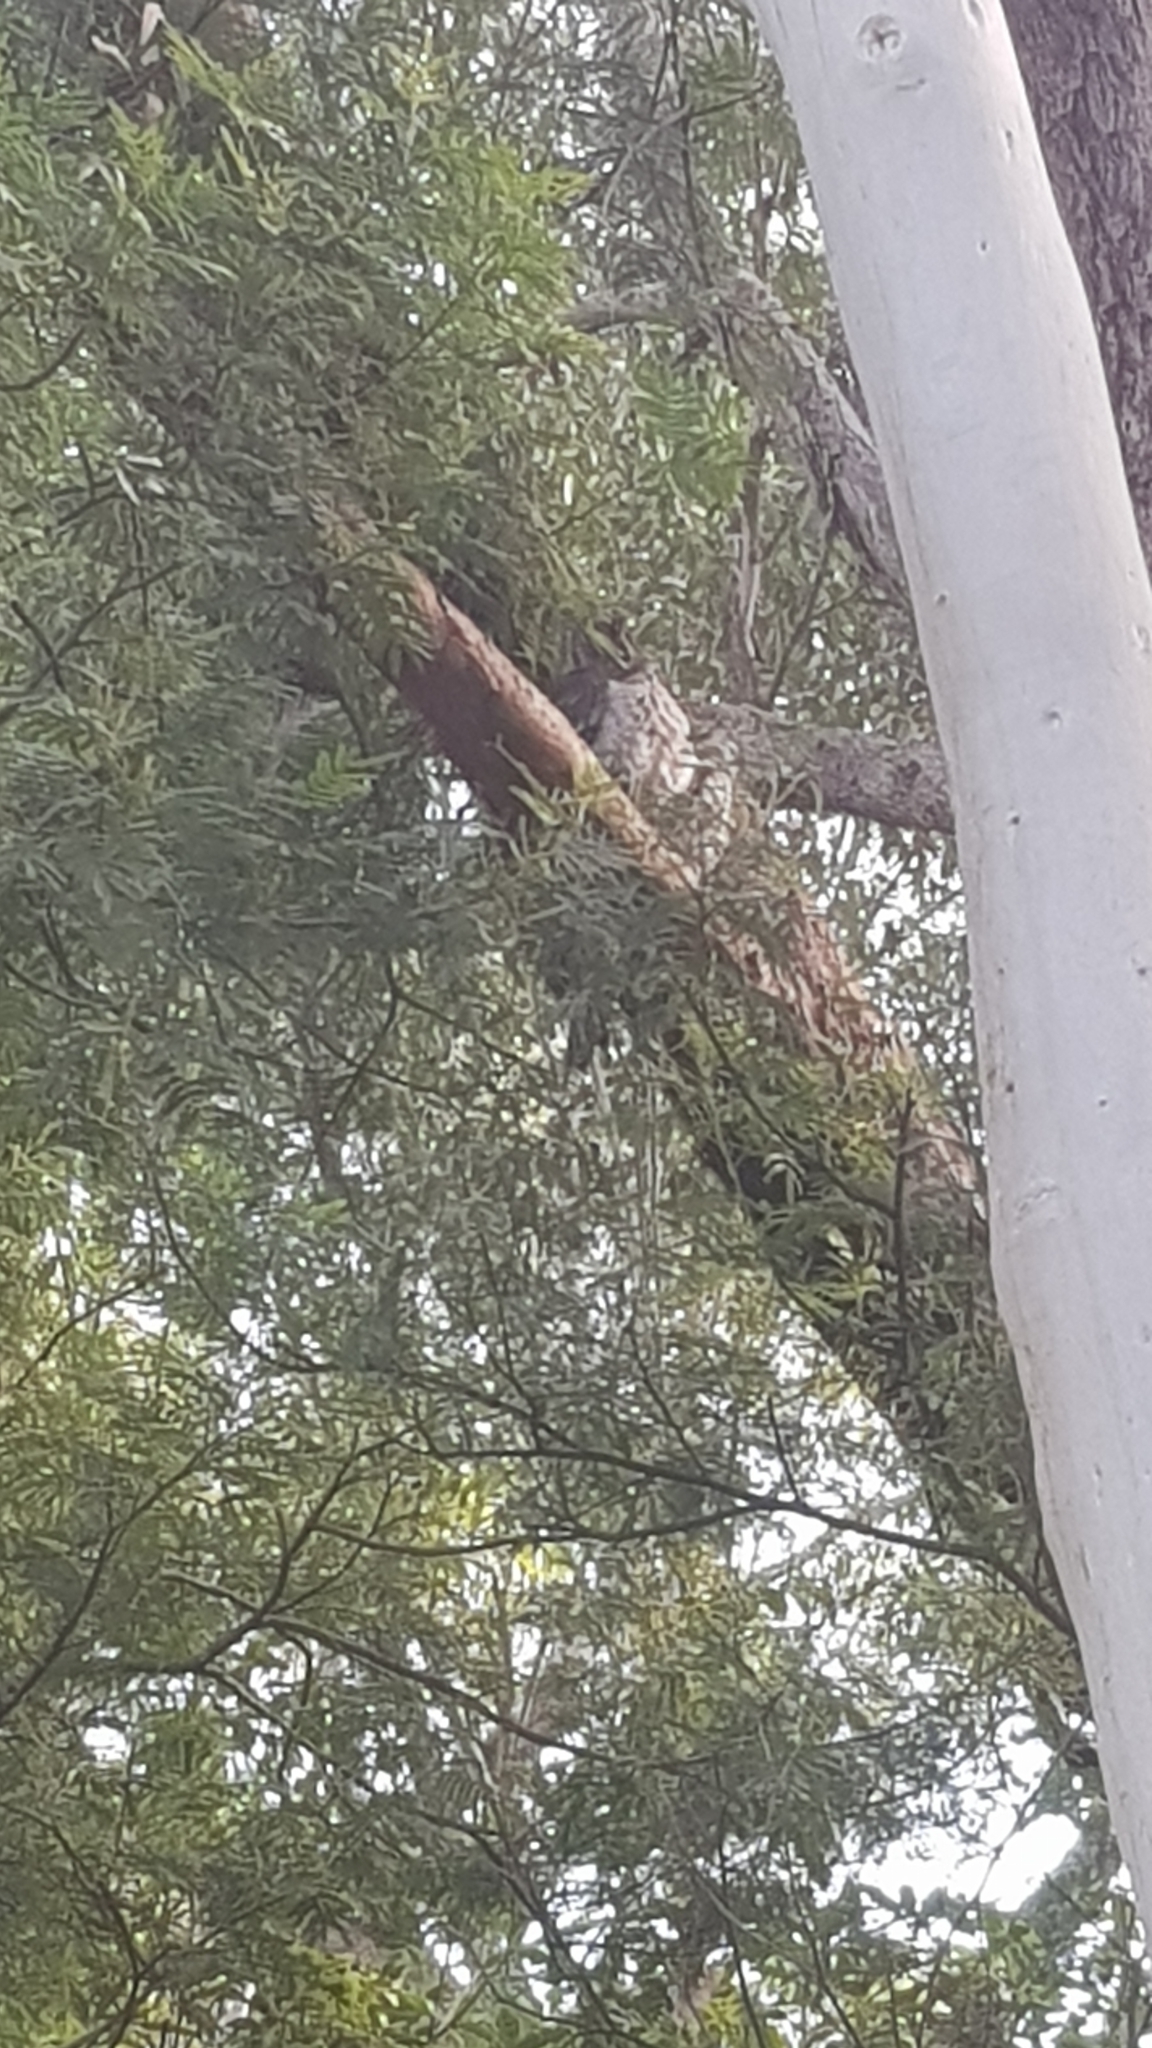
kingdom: Animalia
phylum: Chordata
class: Aves
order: Caprimulgiformes
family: Podargidae
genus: Podargus
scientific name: Podargus strigoides
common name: Tawny frogmouth
